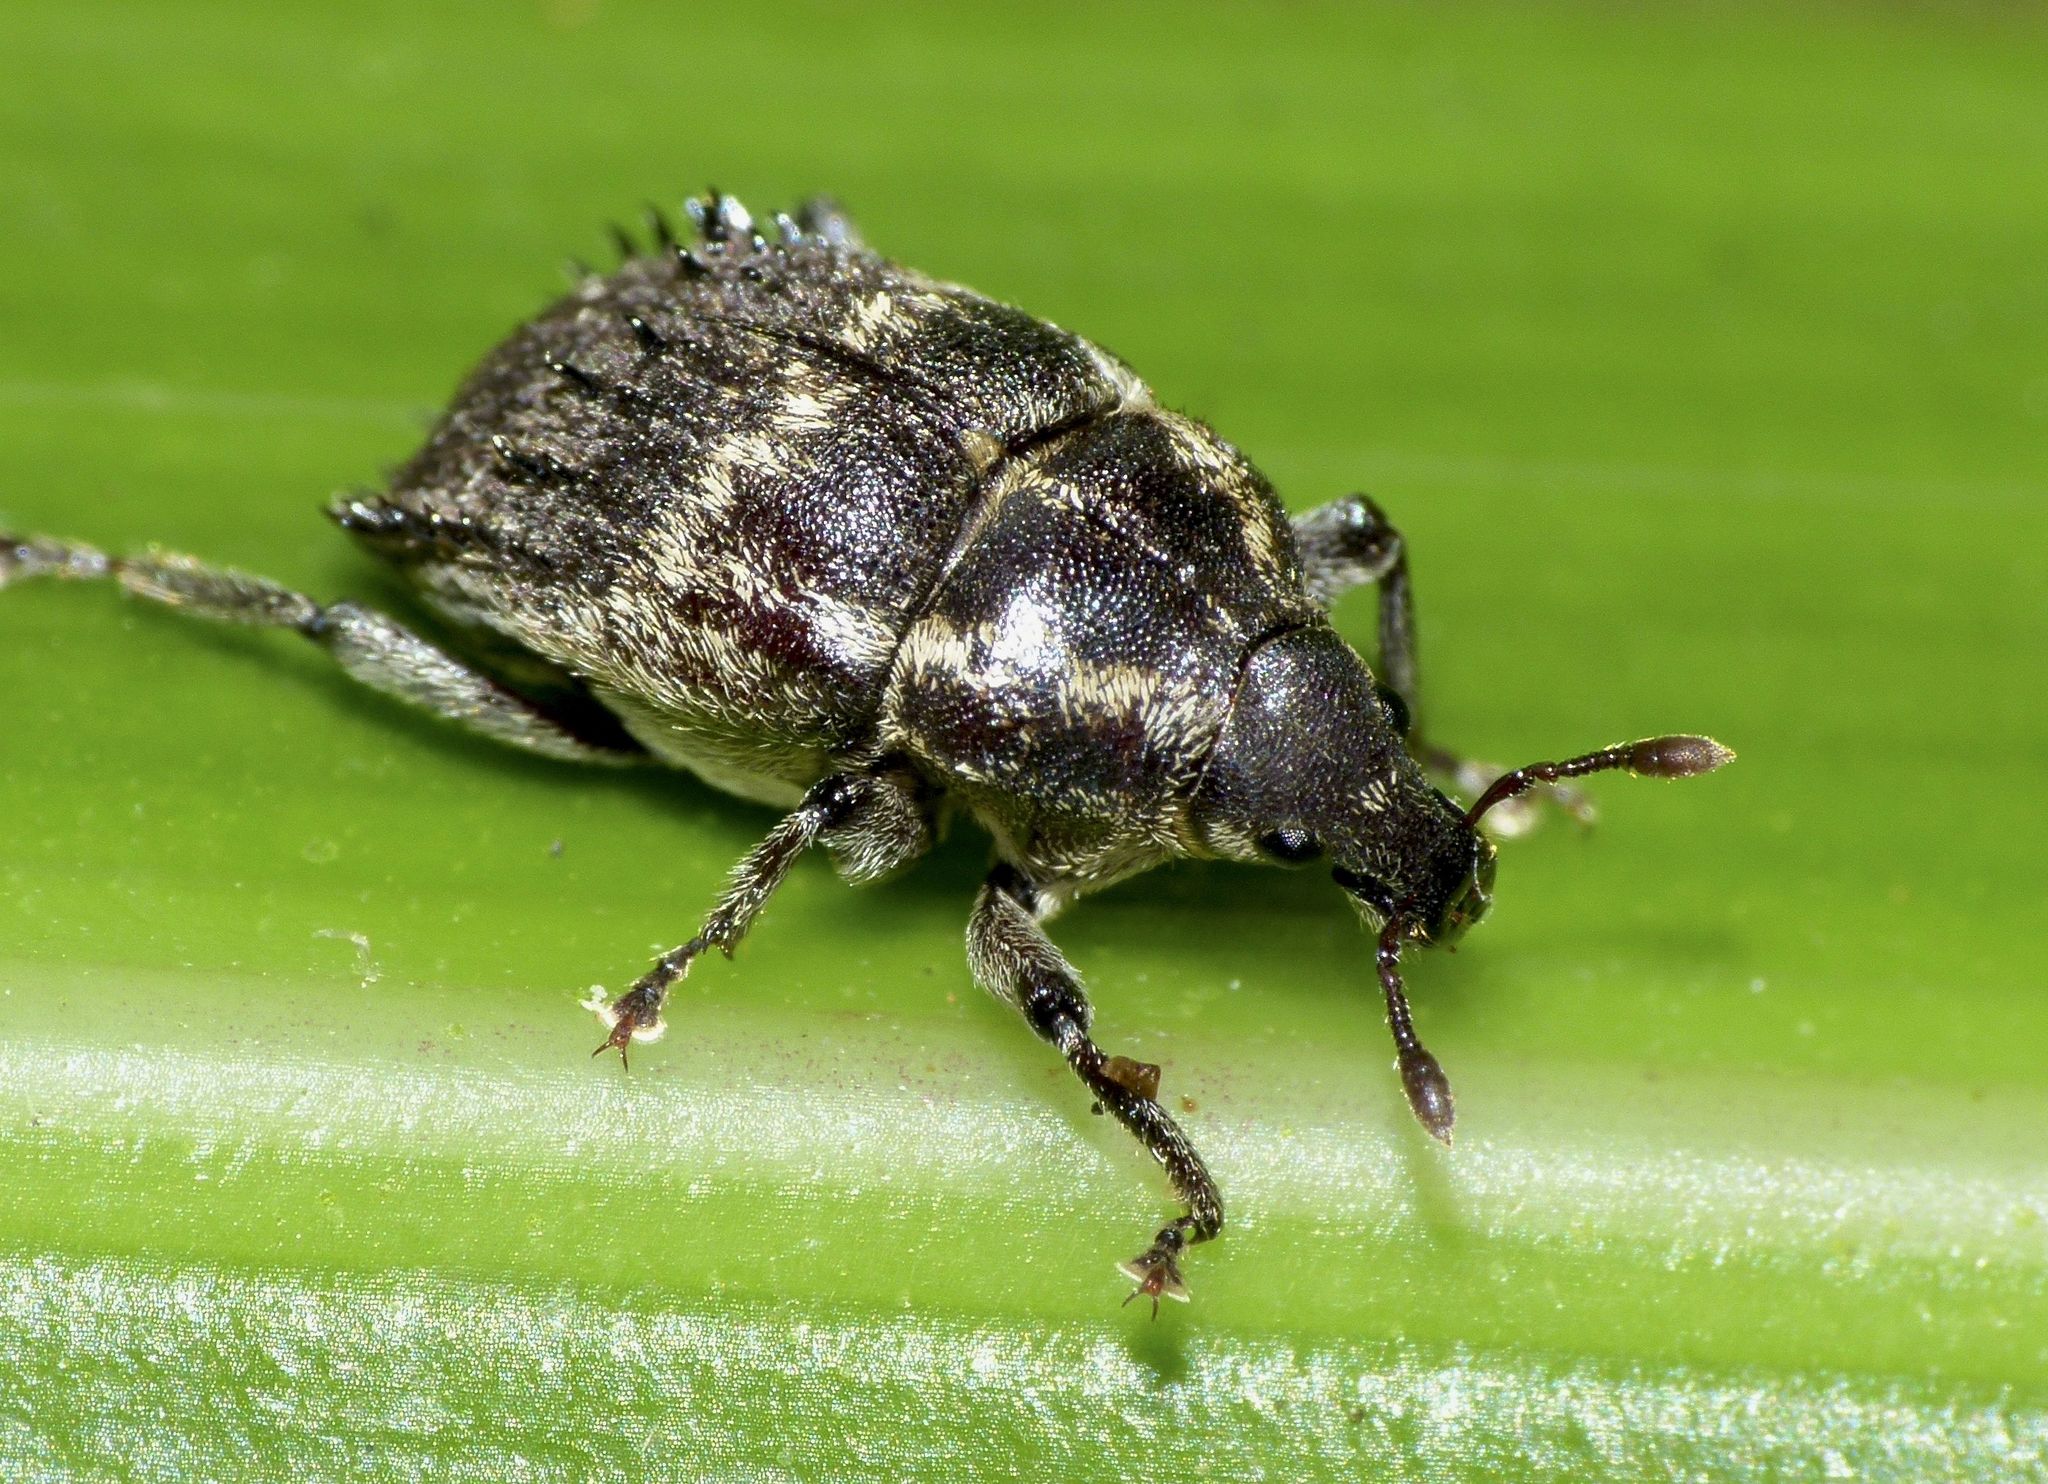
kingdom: Animalia
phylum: Arthropoda
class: Insecta
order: Coleoptera
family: Curculionidae
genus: Psepholax
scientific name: Psepholax coronatus
